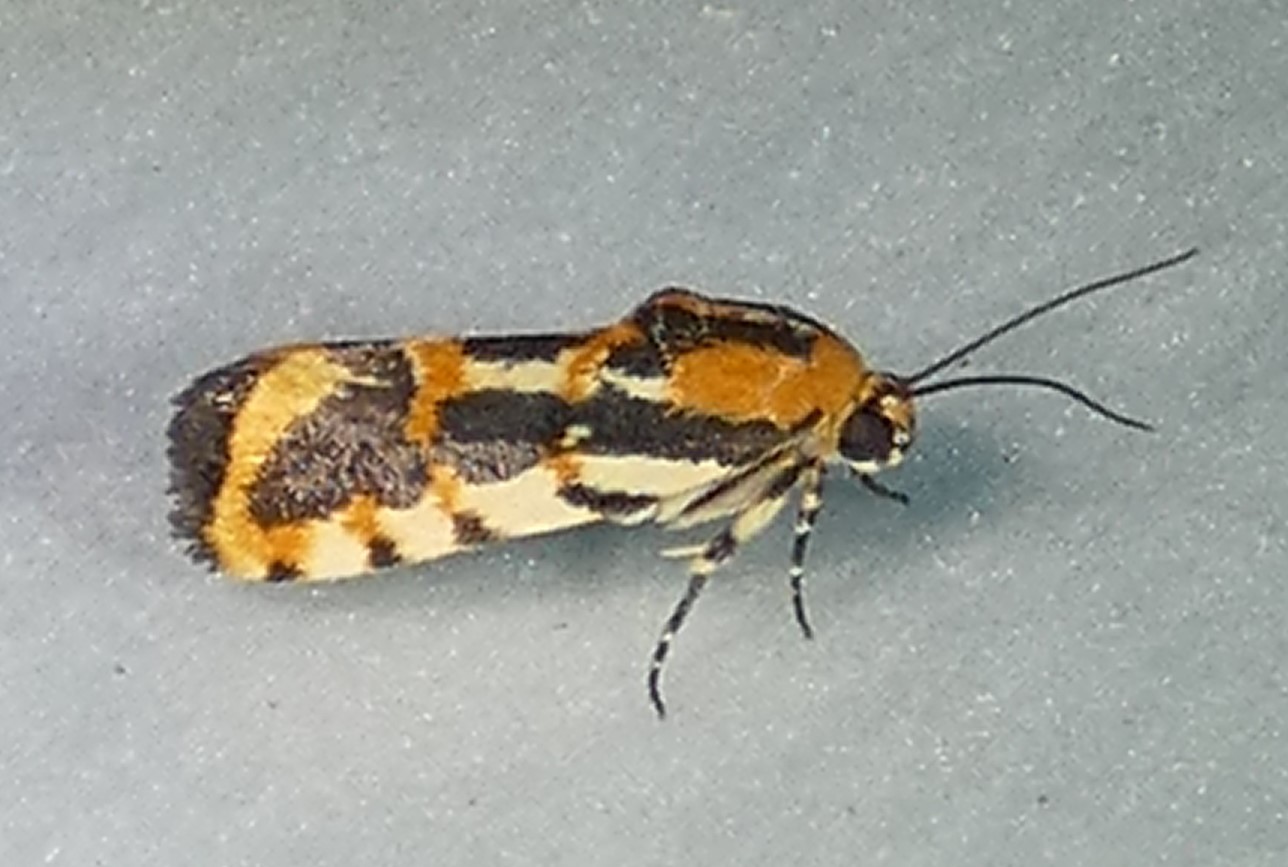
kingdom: Animalia
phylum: Arthropoda
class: Insecta
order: Lepidoptera
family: Noctuidae
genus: Acontia
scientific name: Acontia leo
